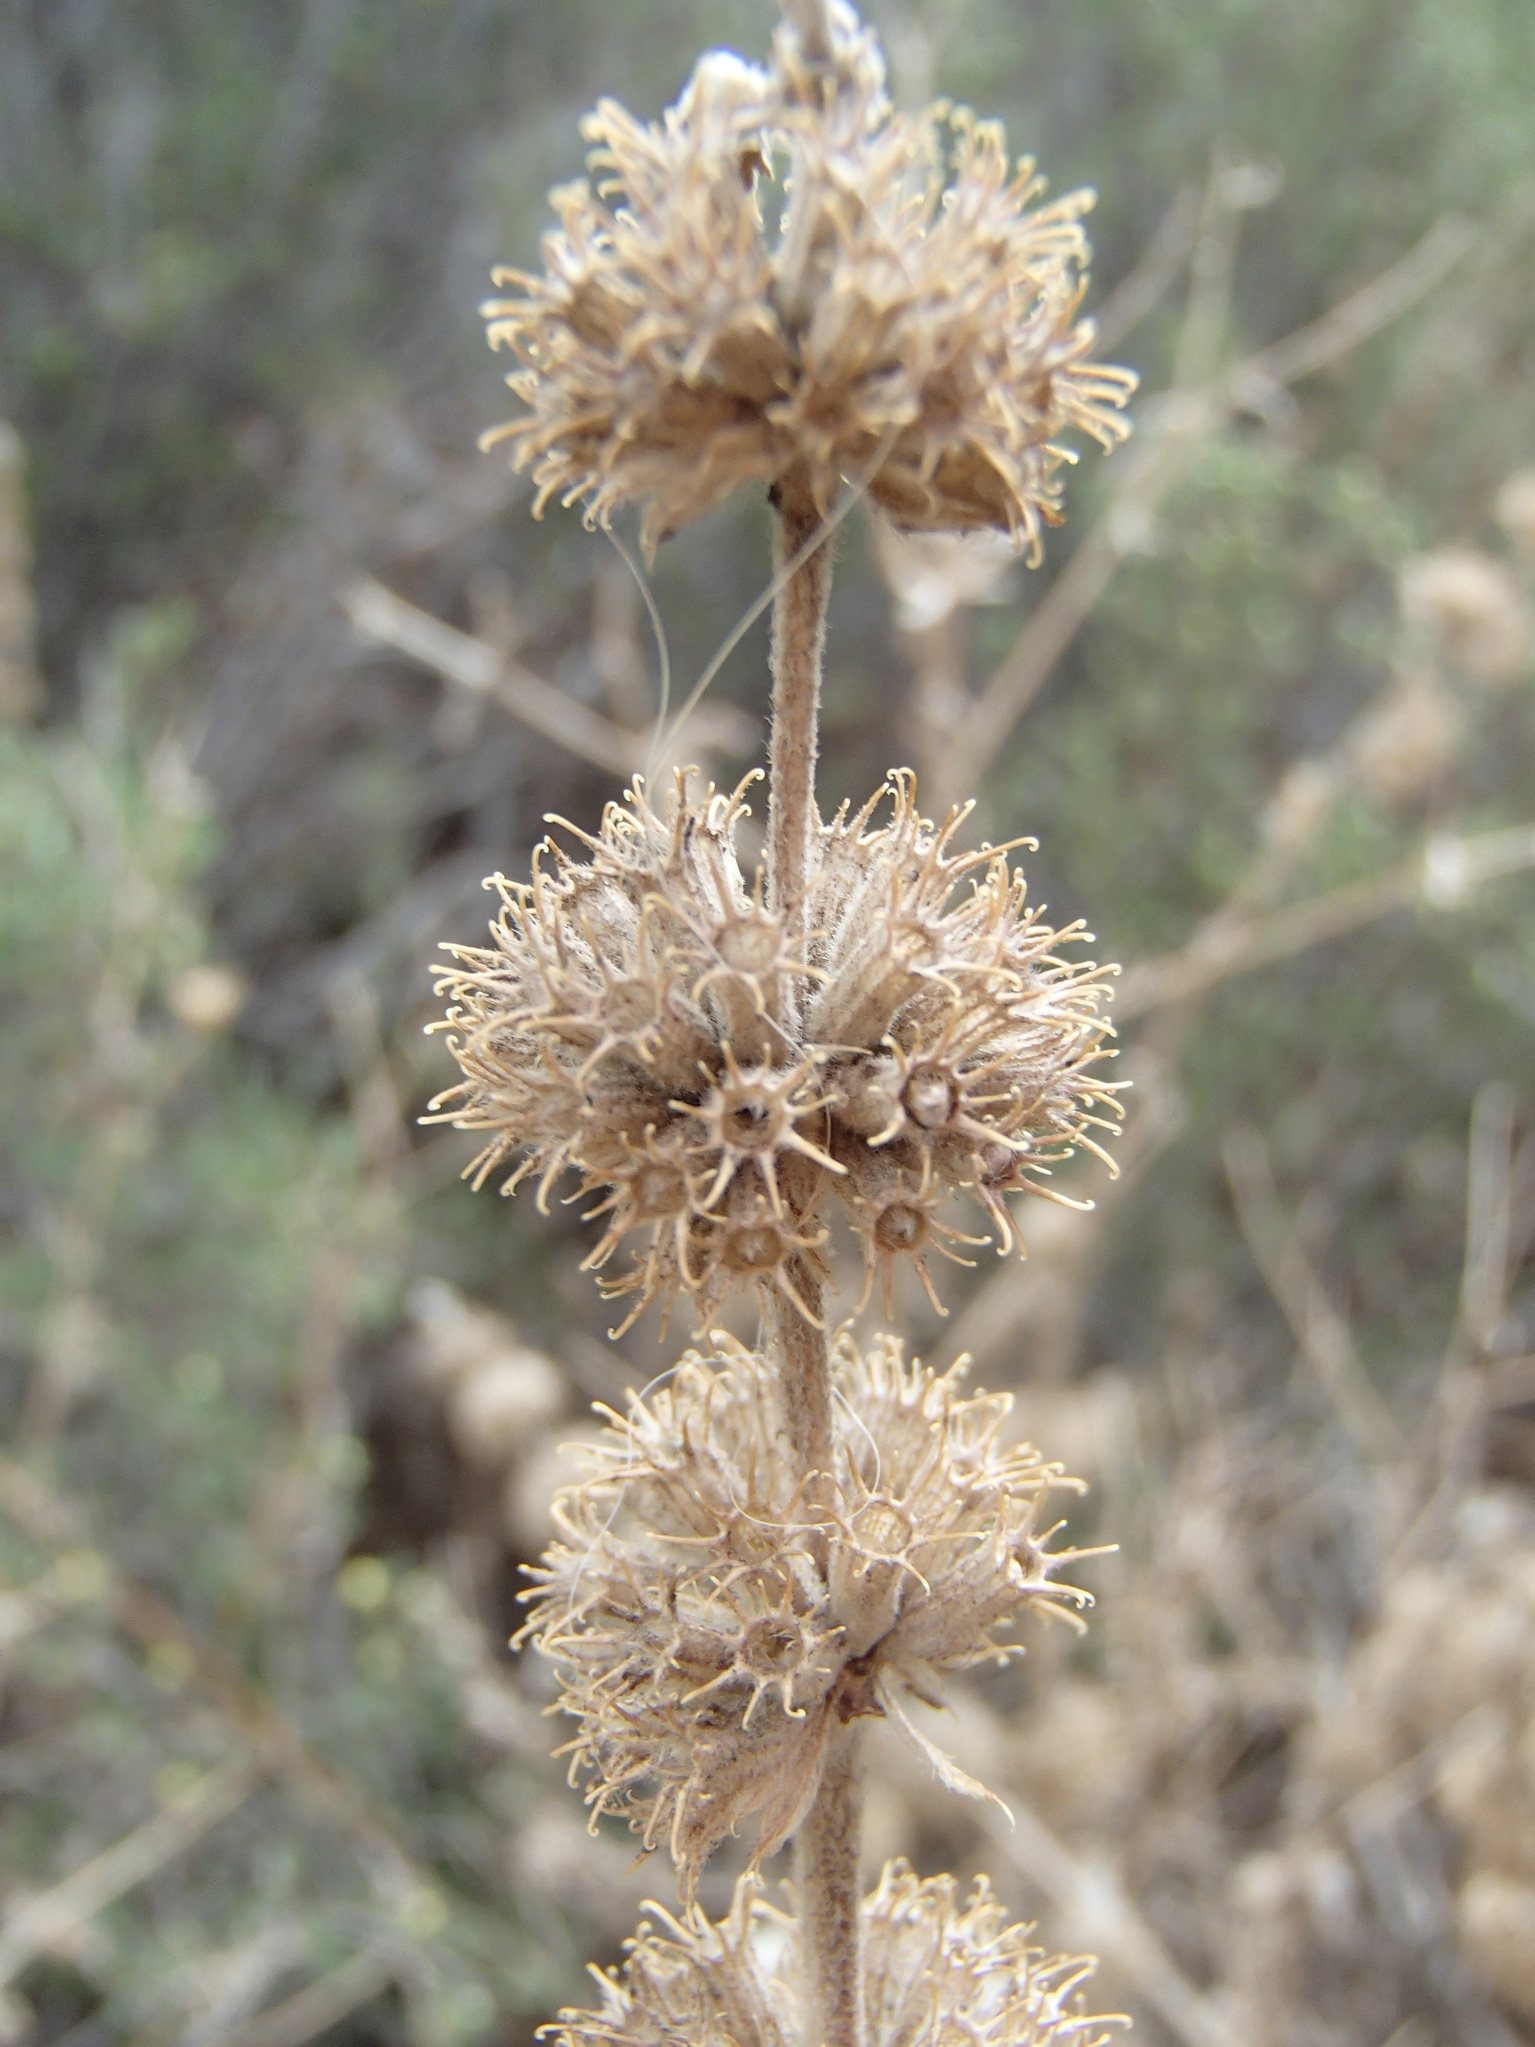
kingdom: Plantae
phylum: Tracheophyta
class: Magnoliopsida
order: Lamiales
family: Lamiaceae
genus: Marrubium
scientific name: Marrubium vulgare
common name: Horehound
